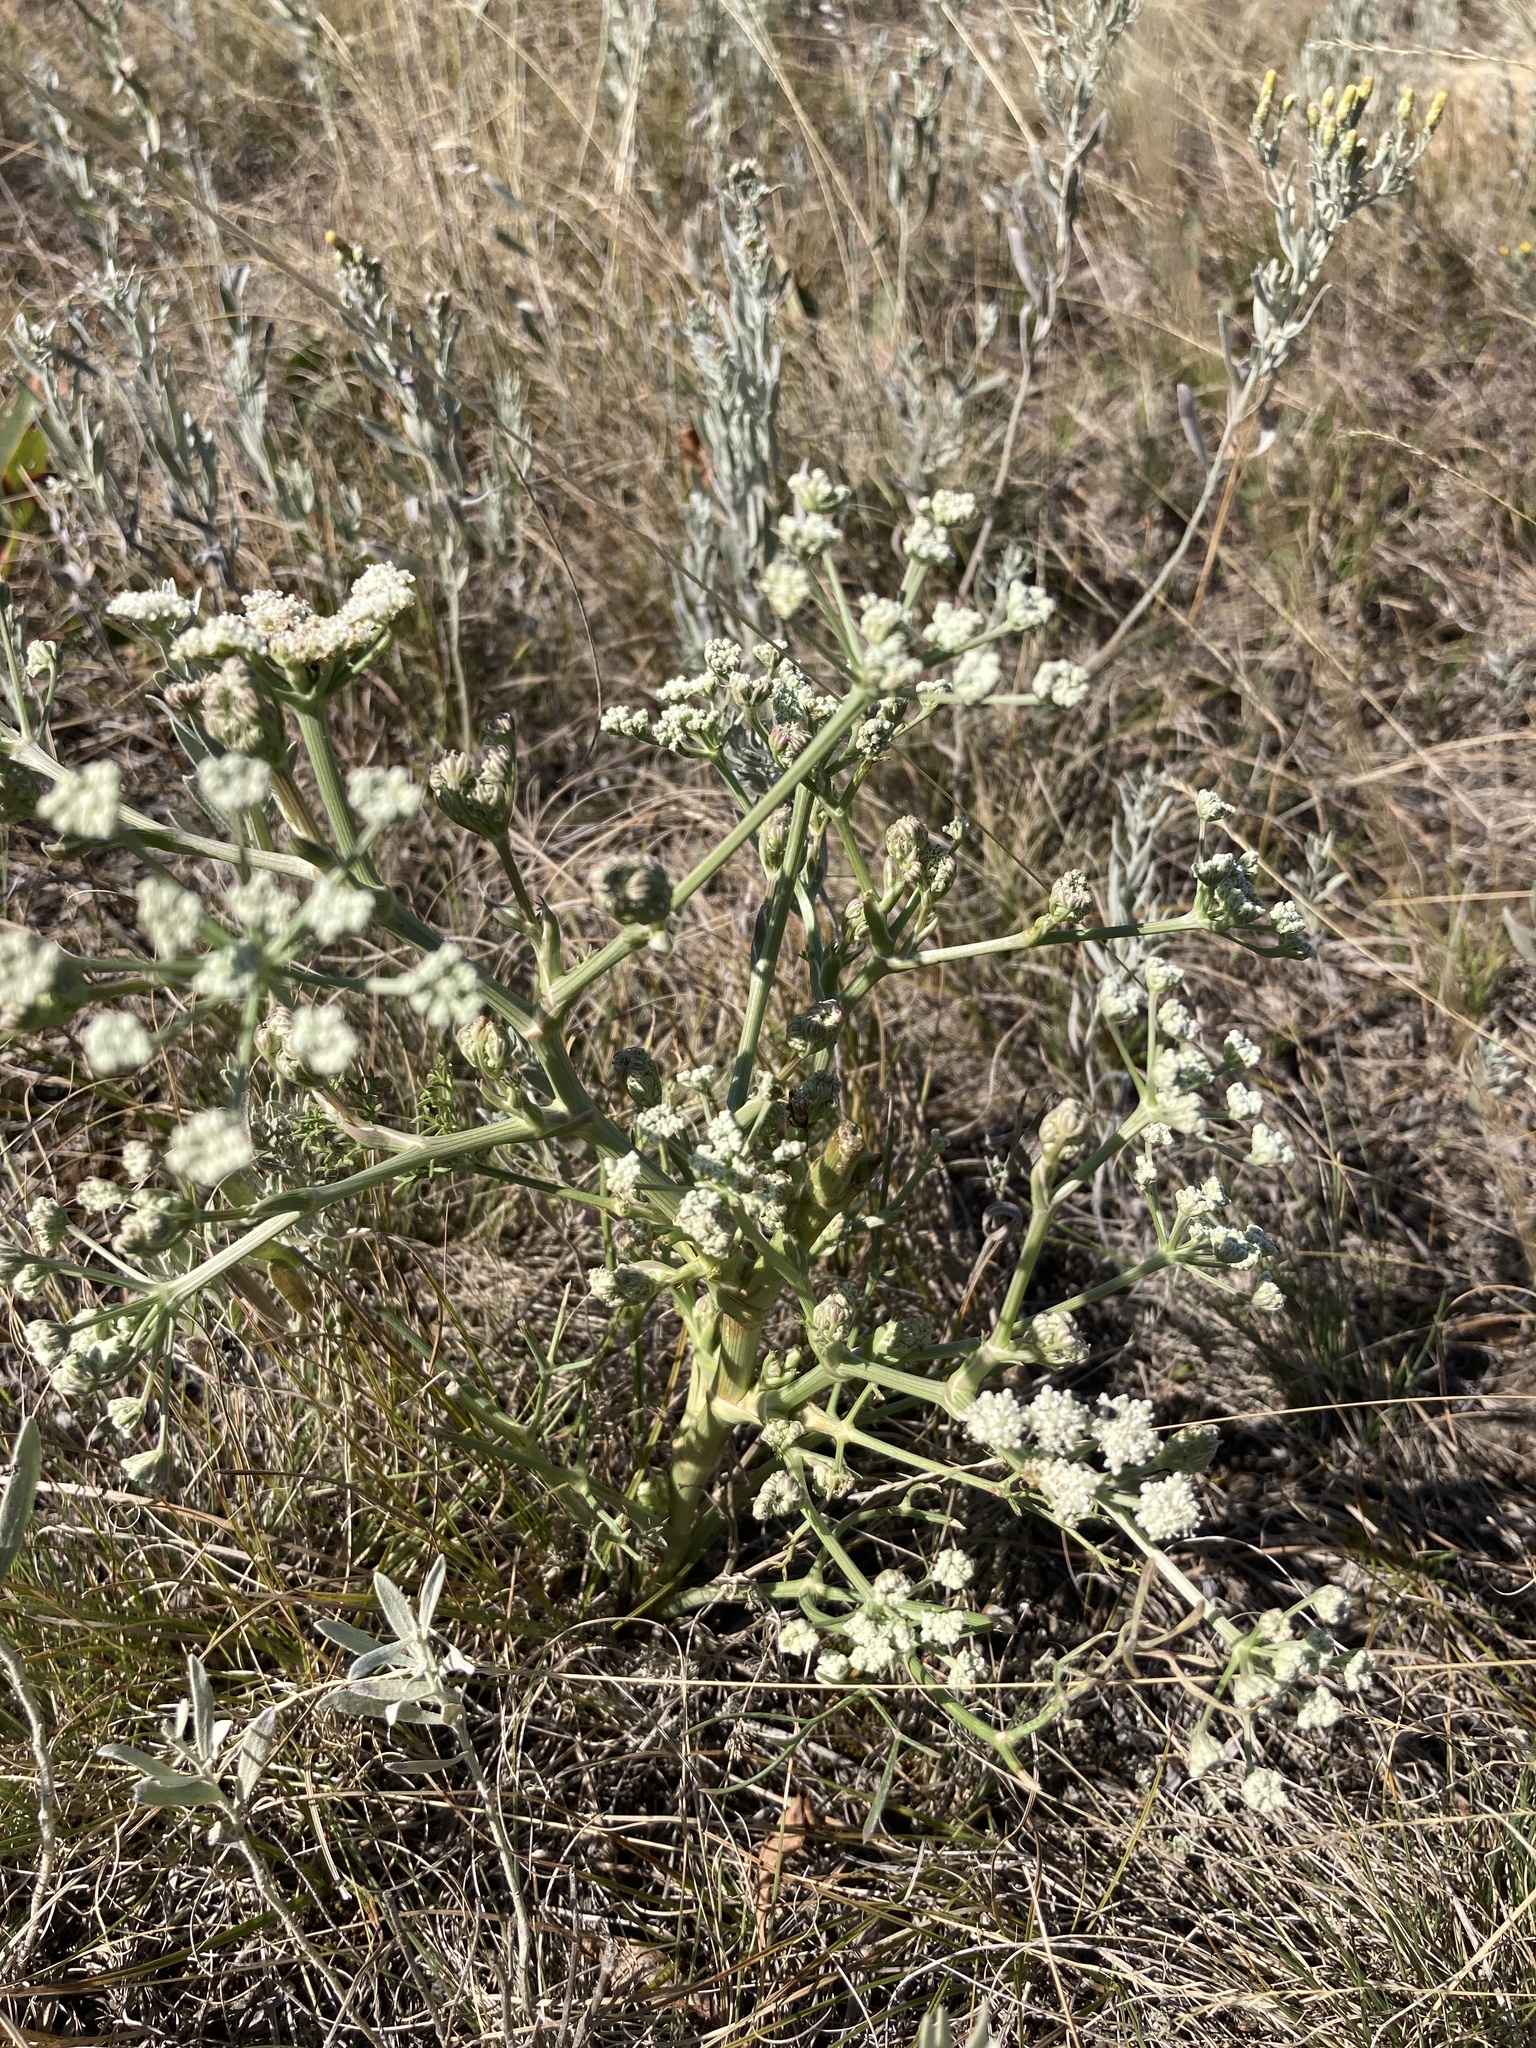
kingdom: Plantae
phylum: Tracheophyta
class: Magnoliopsida
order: Apiales
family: Apiaceae
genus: Seseli
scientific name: Seseli arenarium
